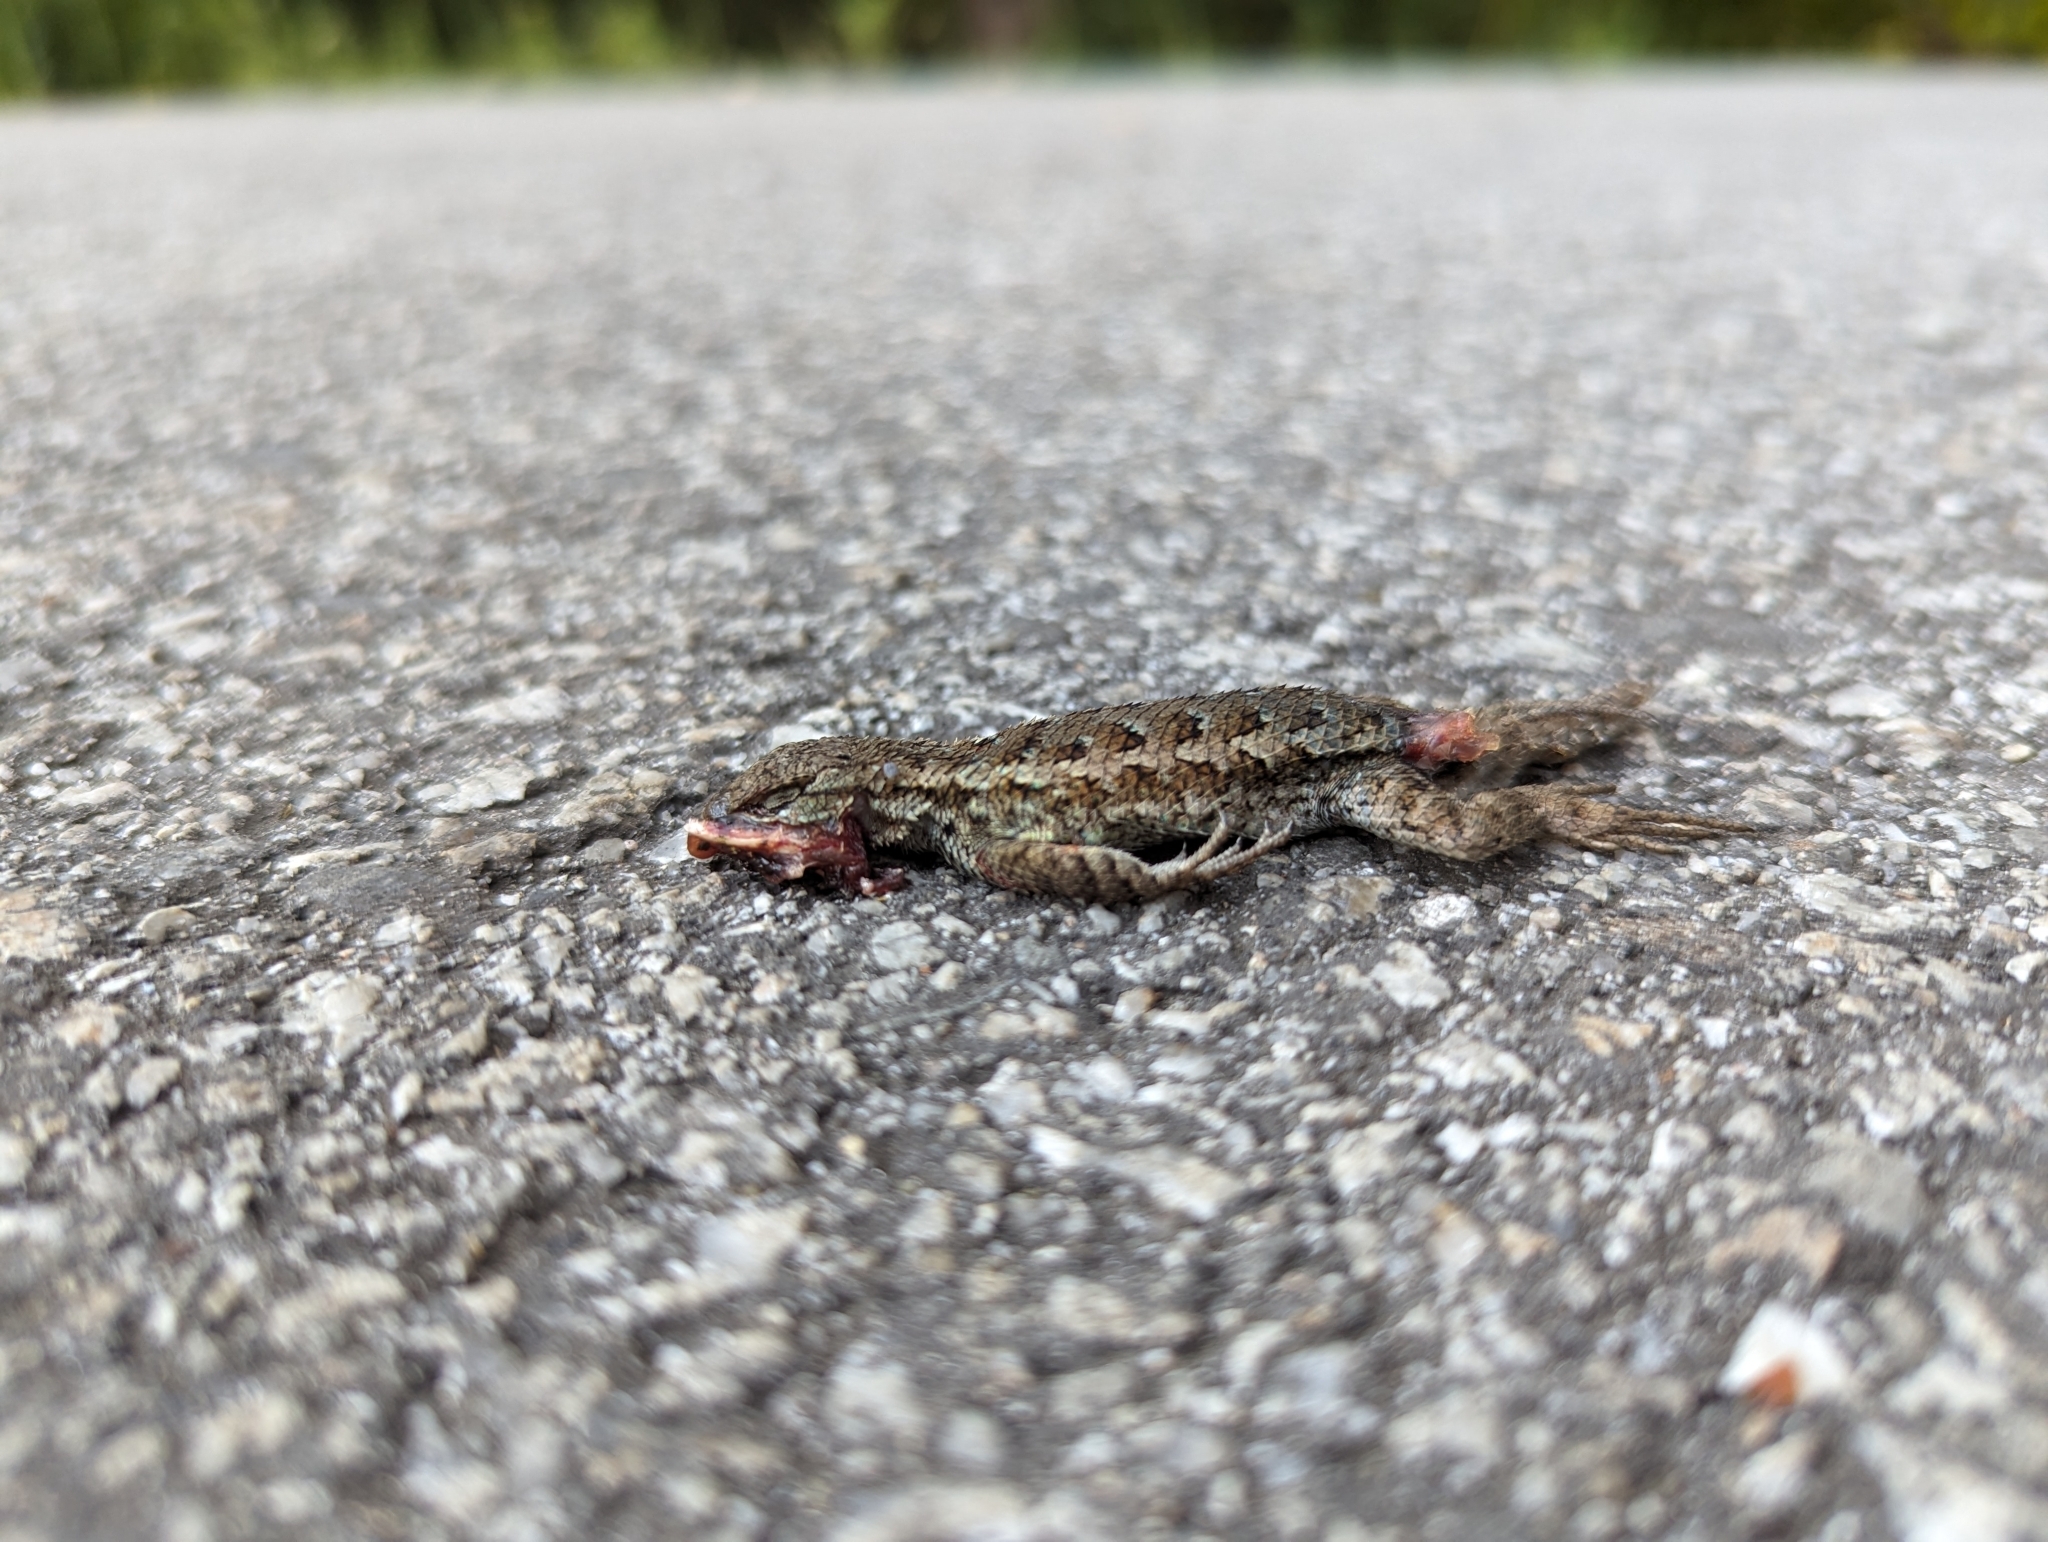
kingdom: Animalia
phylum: Chordata
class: Squamata
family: Phrynosomatidae
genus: Sceloporus
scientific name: Sceloporus occidentalis
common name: Western fence lizard
